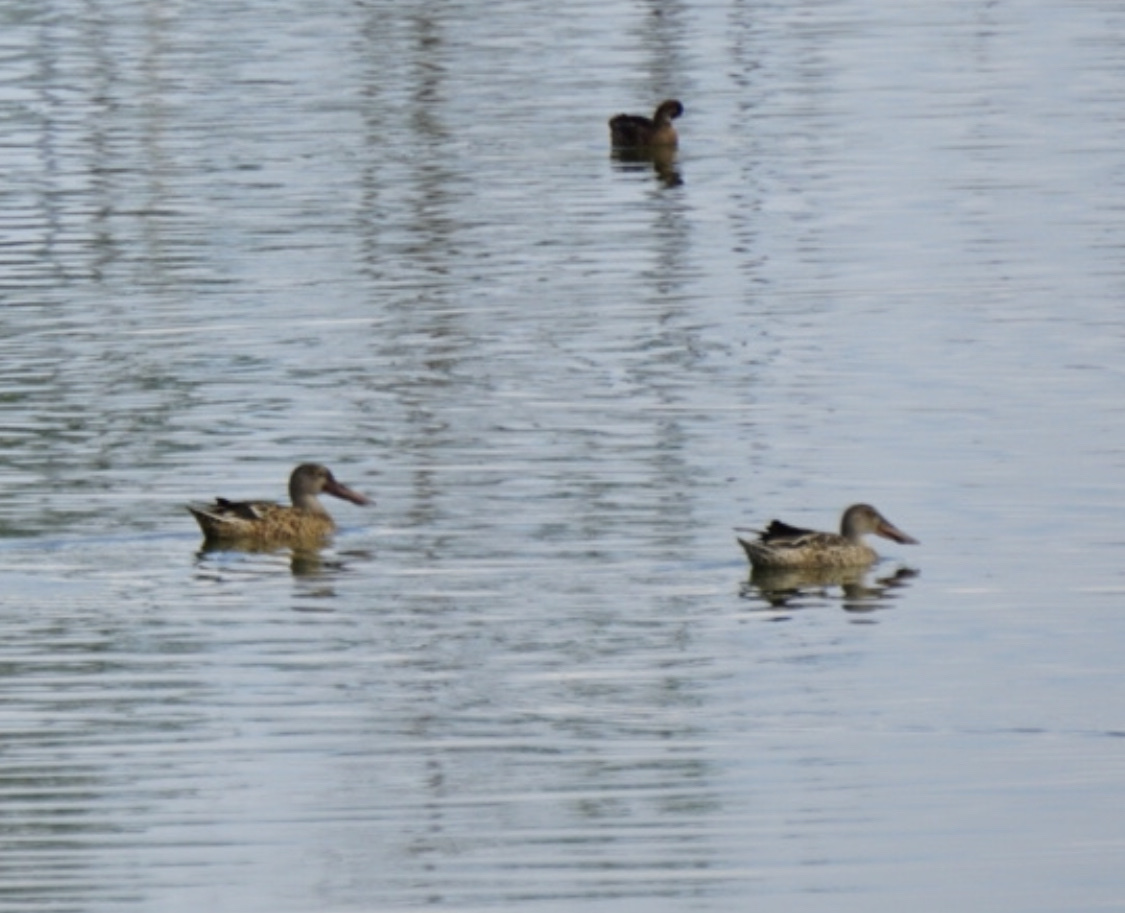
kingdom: Animalia
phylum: Chordata
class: Aves
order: Anseriformes
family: Anatidae
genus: Spatula
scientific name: Spatula clypeata
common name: Northern shoveler
